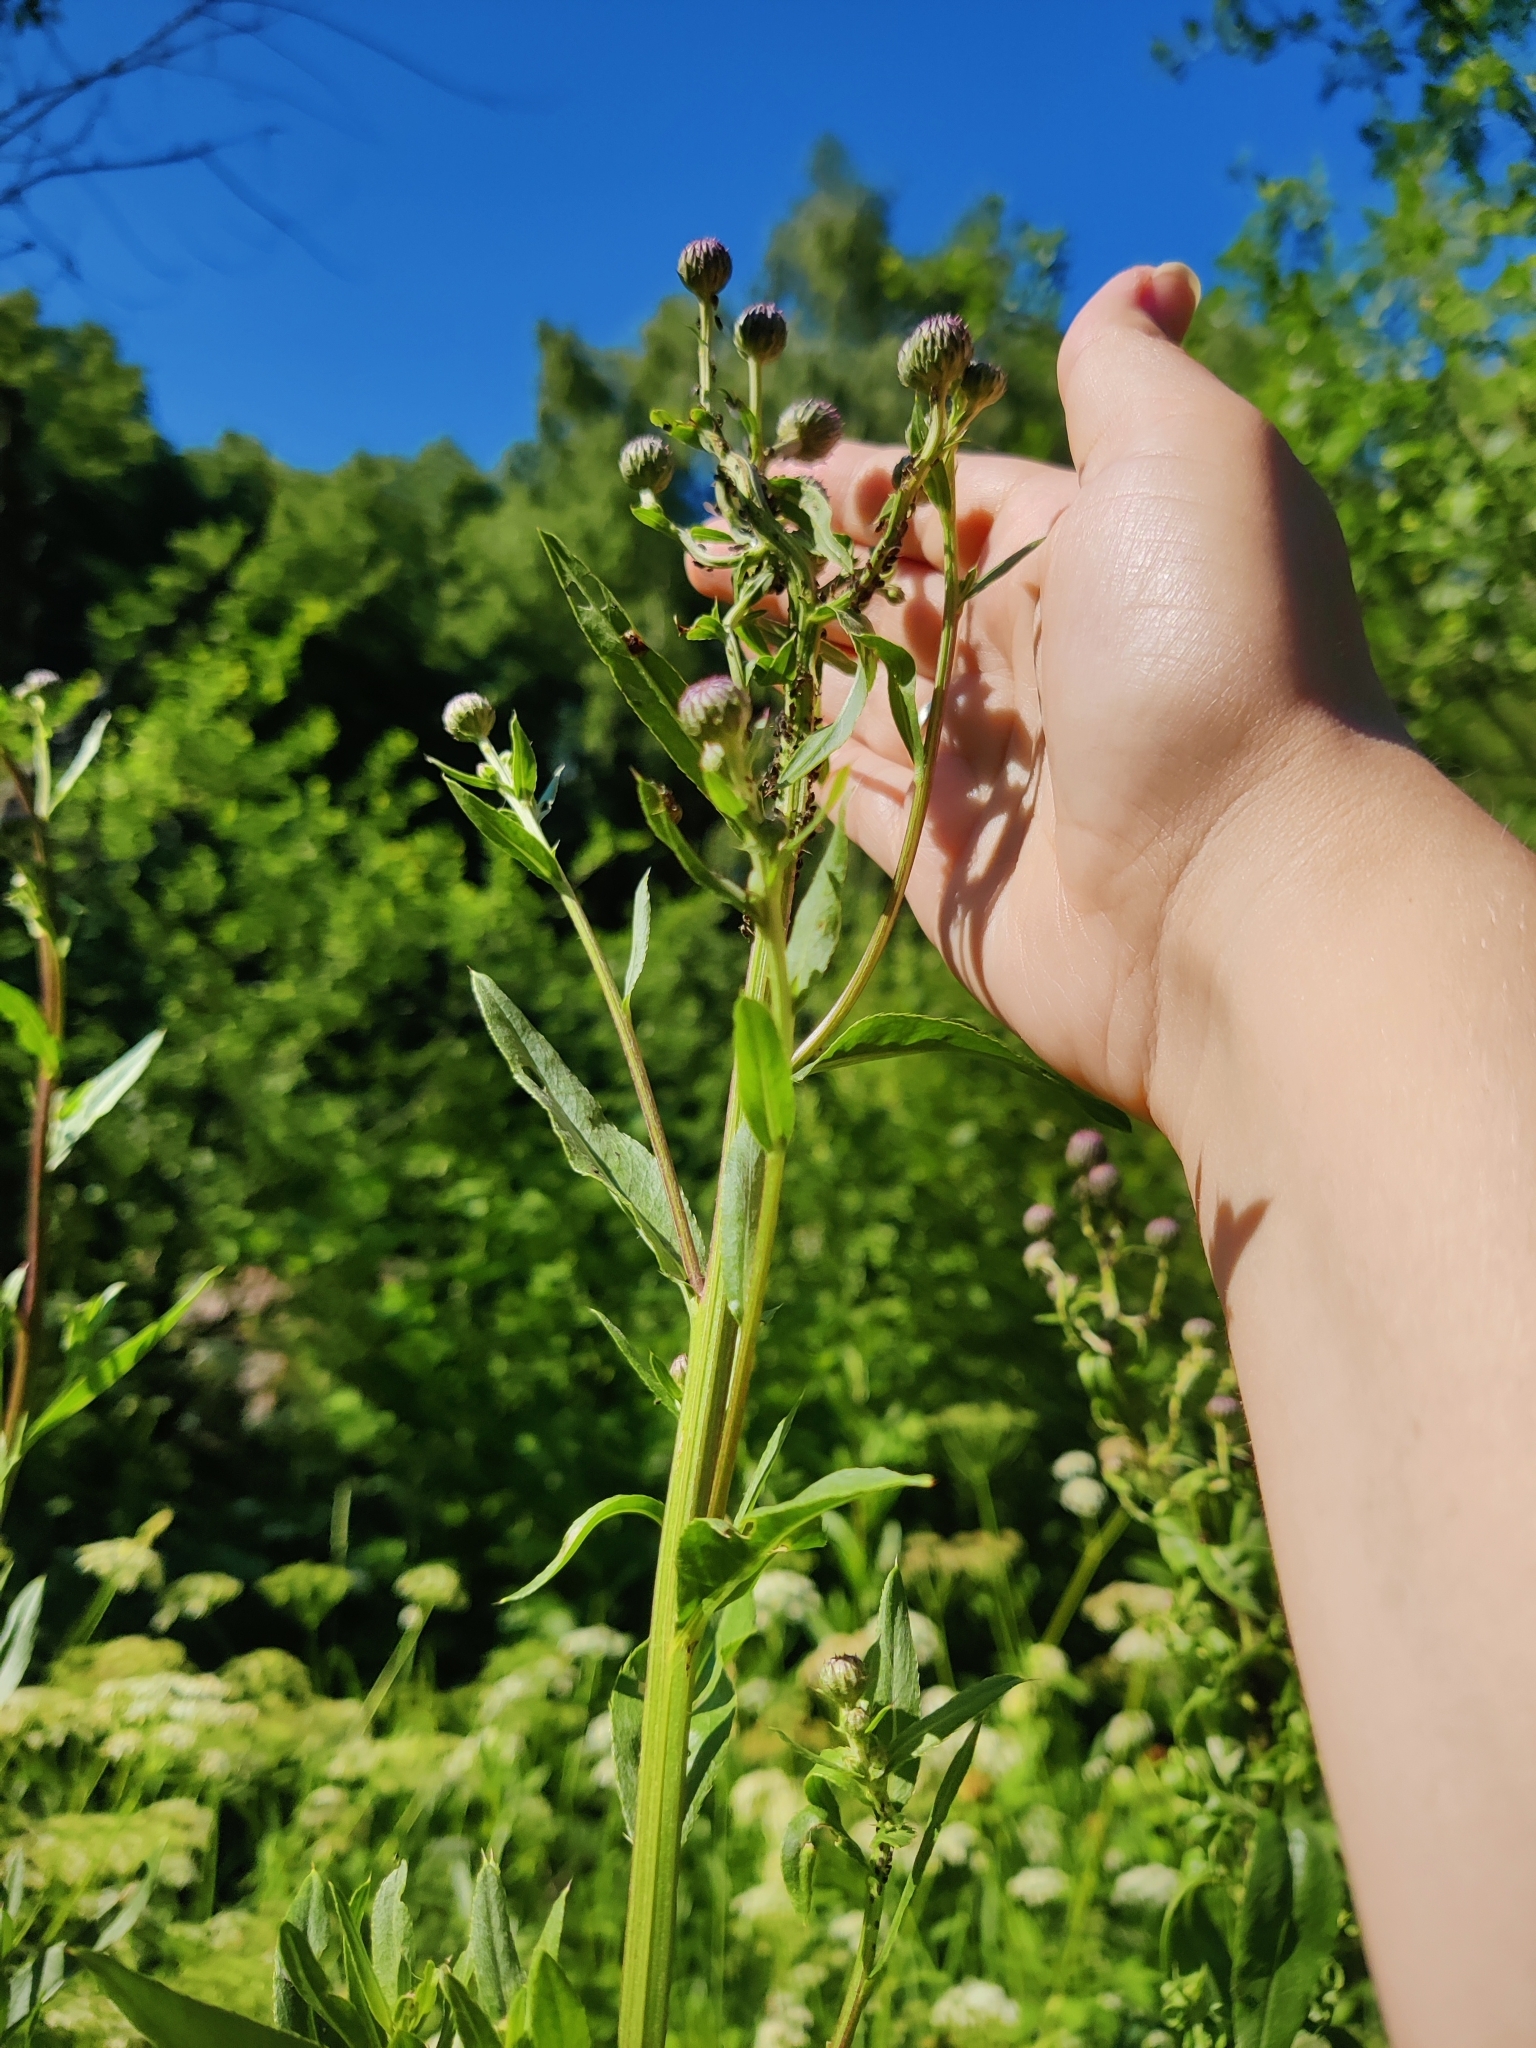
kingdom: Plantae
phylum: Tracheophyta
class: Magnoliopsida
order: Asterales
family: Asteraceae
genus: Cirsium
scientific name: Cirsium arvense
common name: Creeping thistle
